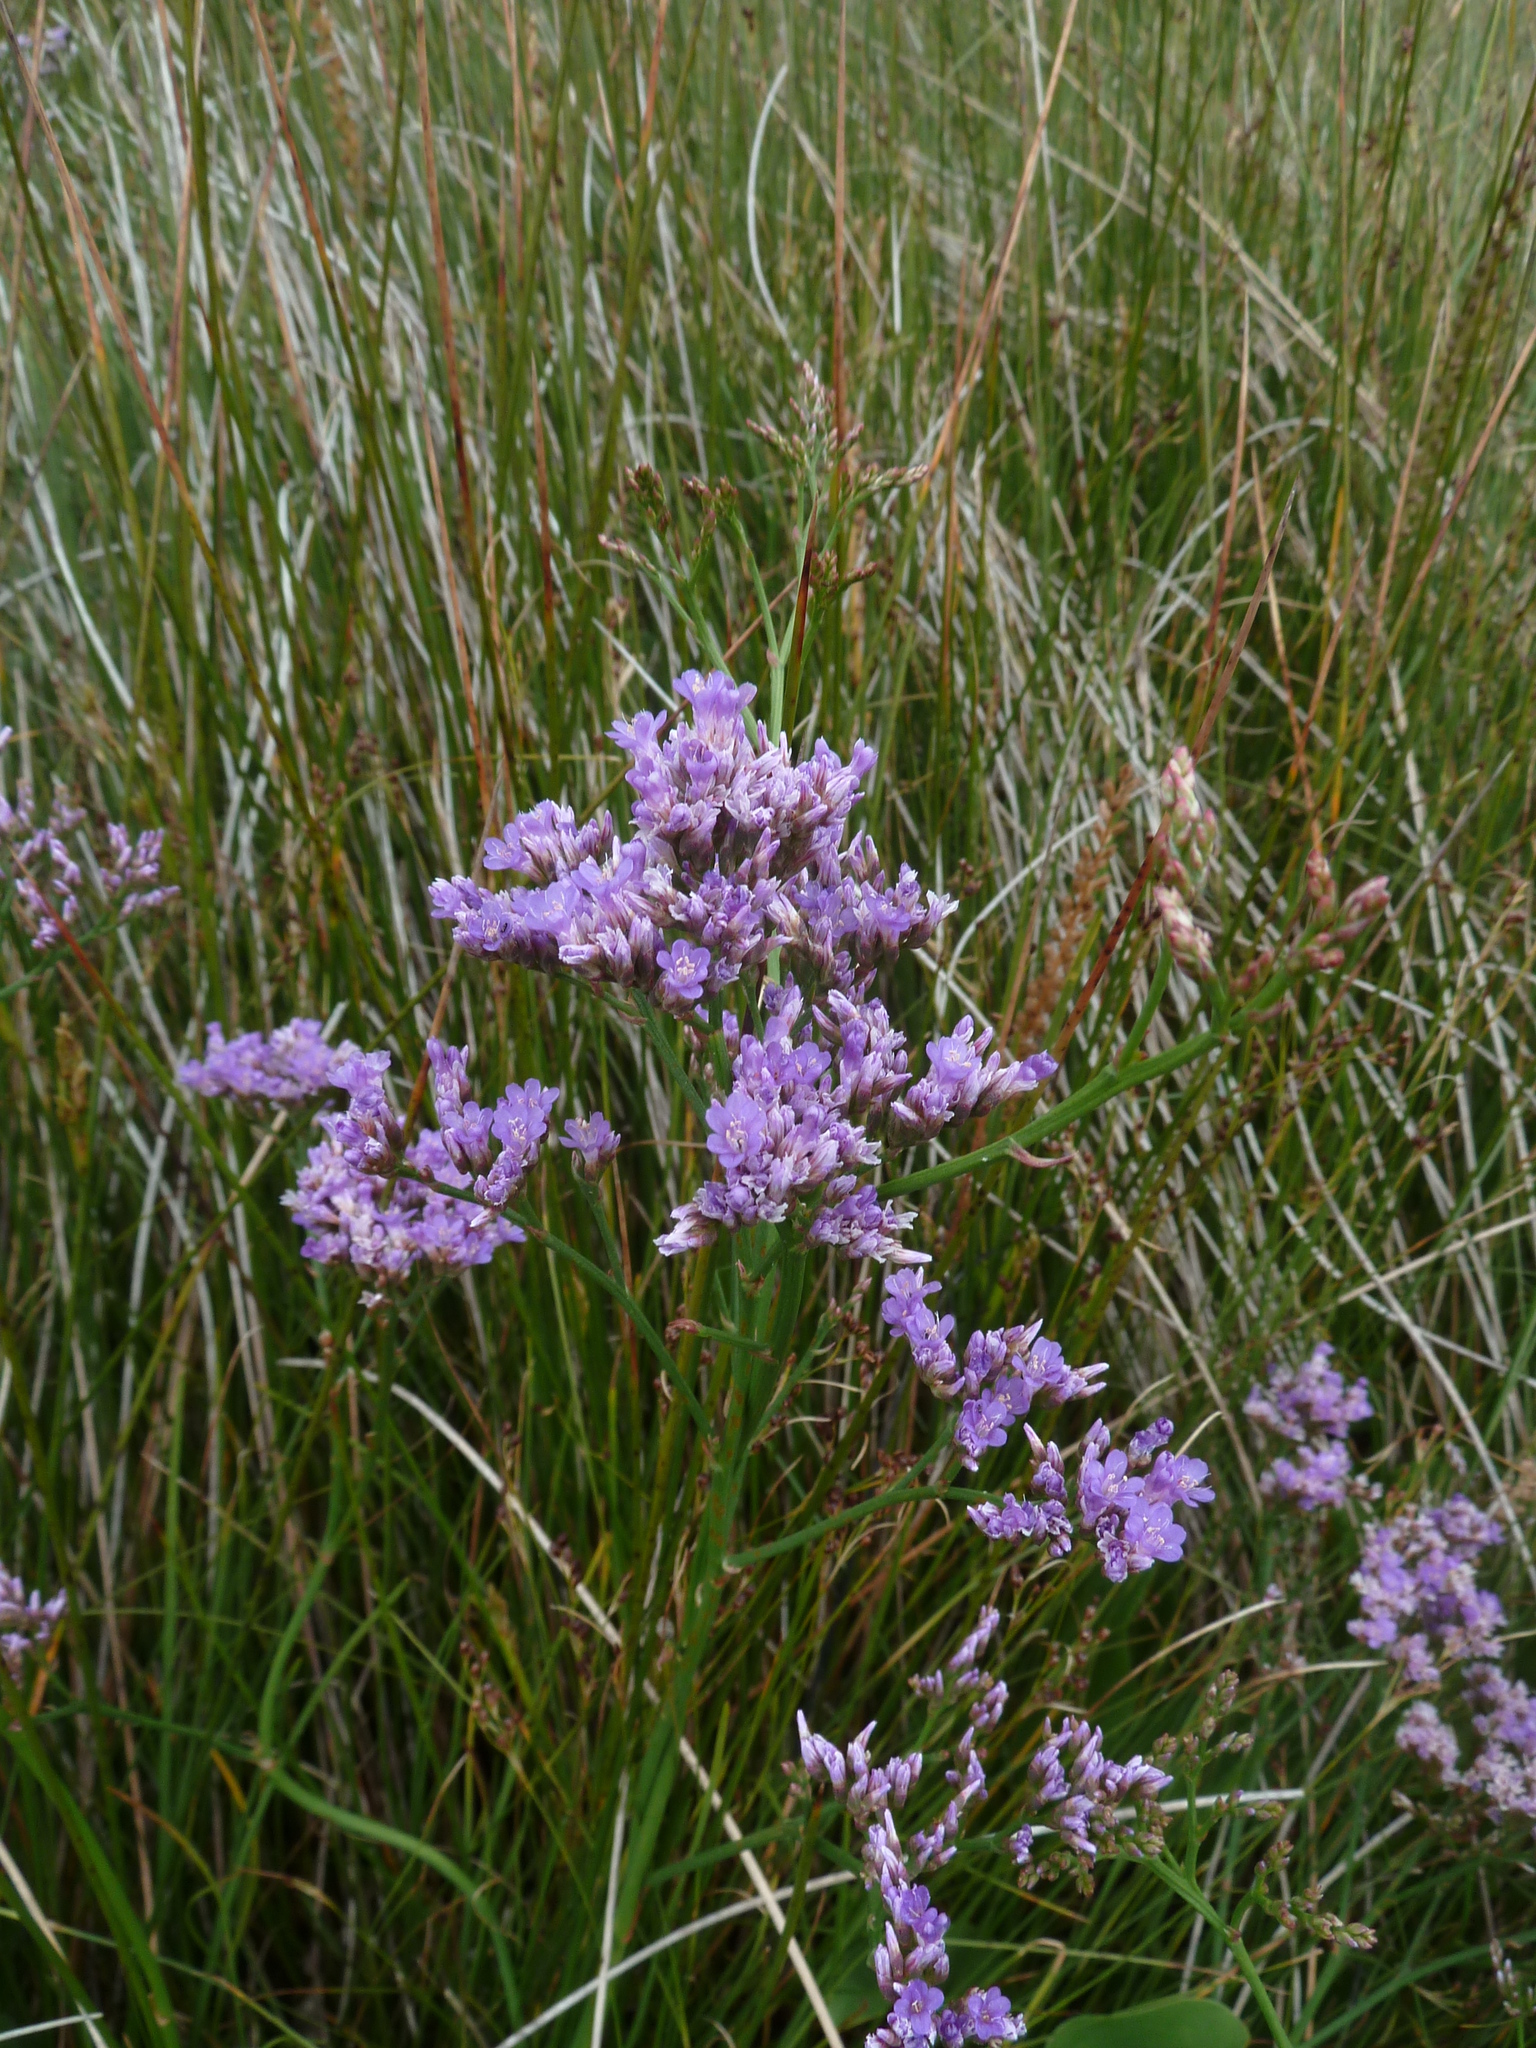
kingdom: Plantae
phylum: Tracheophyta
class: Magnoliopsida
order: Caryophyllales
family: Plumbaginaceae
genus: Limonium
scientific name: Limonium vulgare
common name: Common sea-lavender
